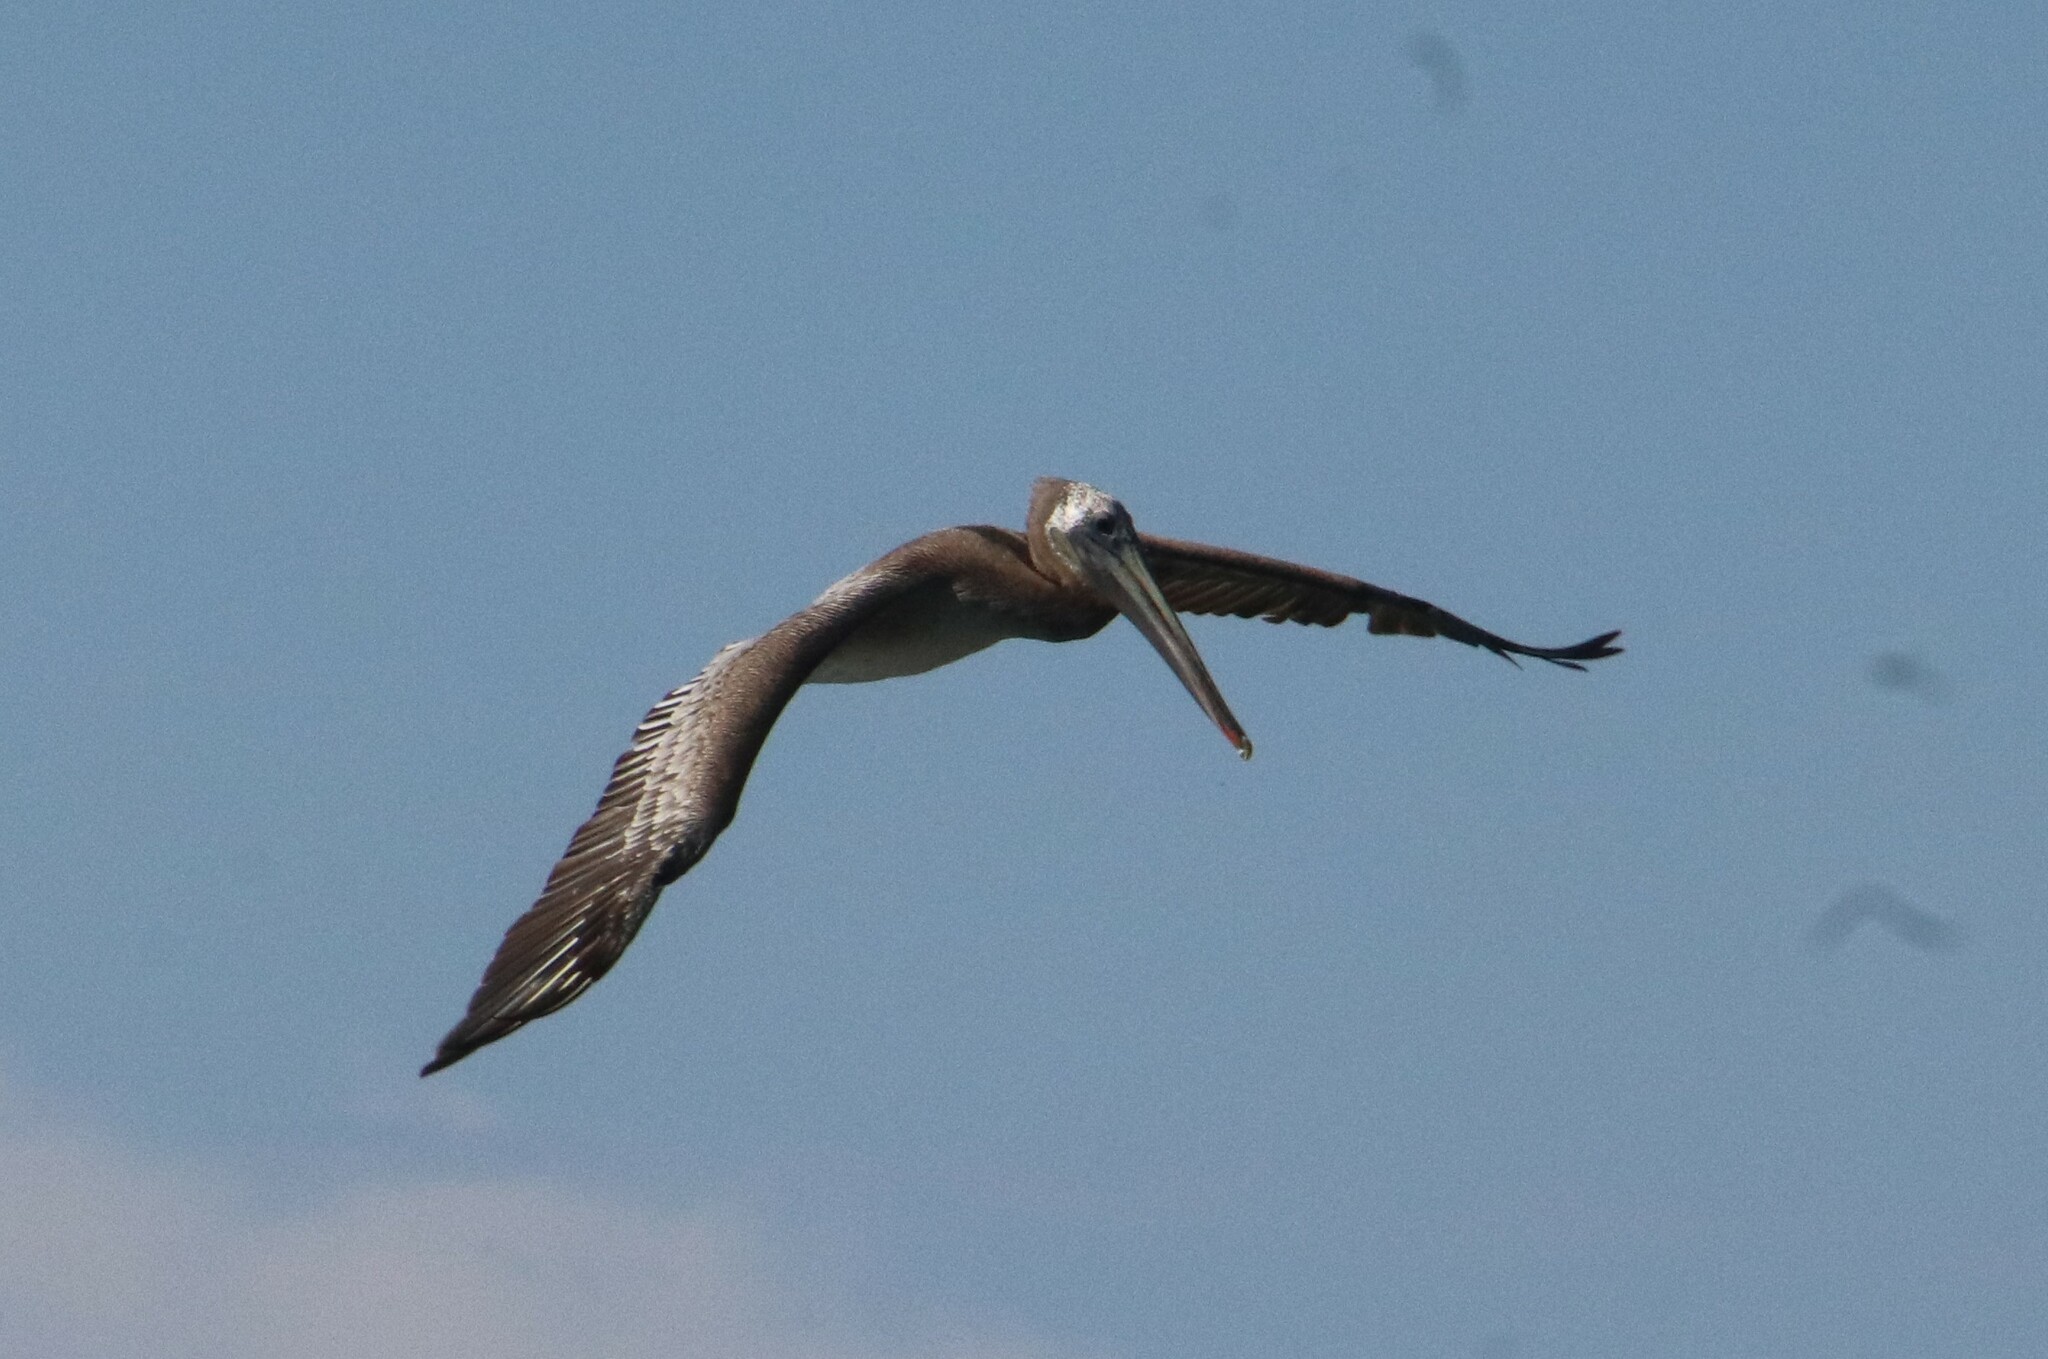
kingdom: Animalia
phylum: Chordata
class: Aves
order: Pelecaniformes
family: Pelecanidae
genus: Pelecanus
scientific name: Pelecanus occidentalis
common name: Brown pelican
